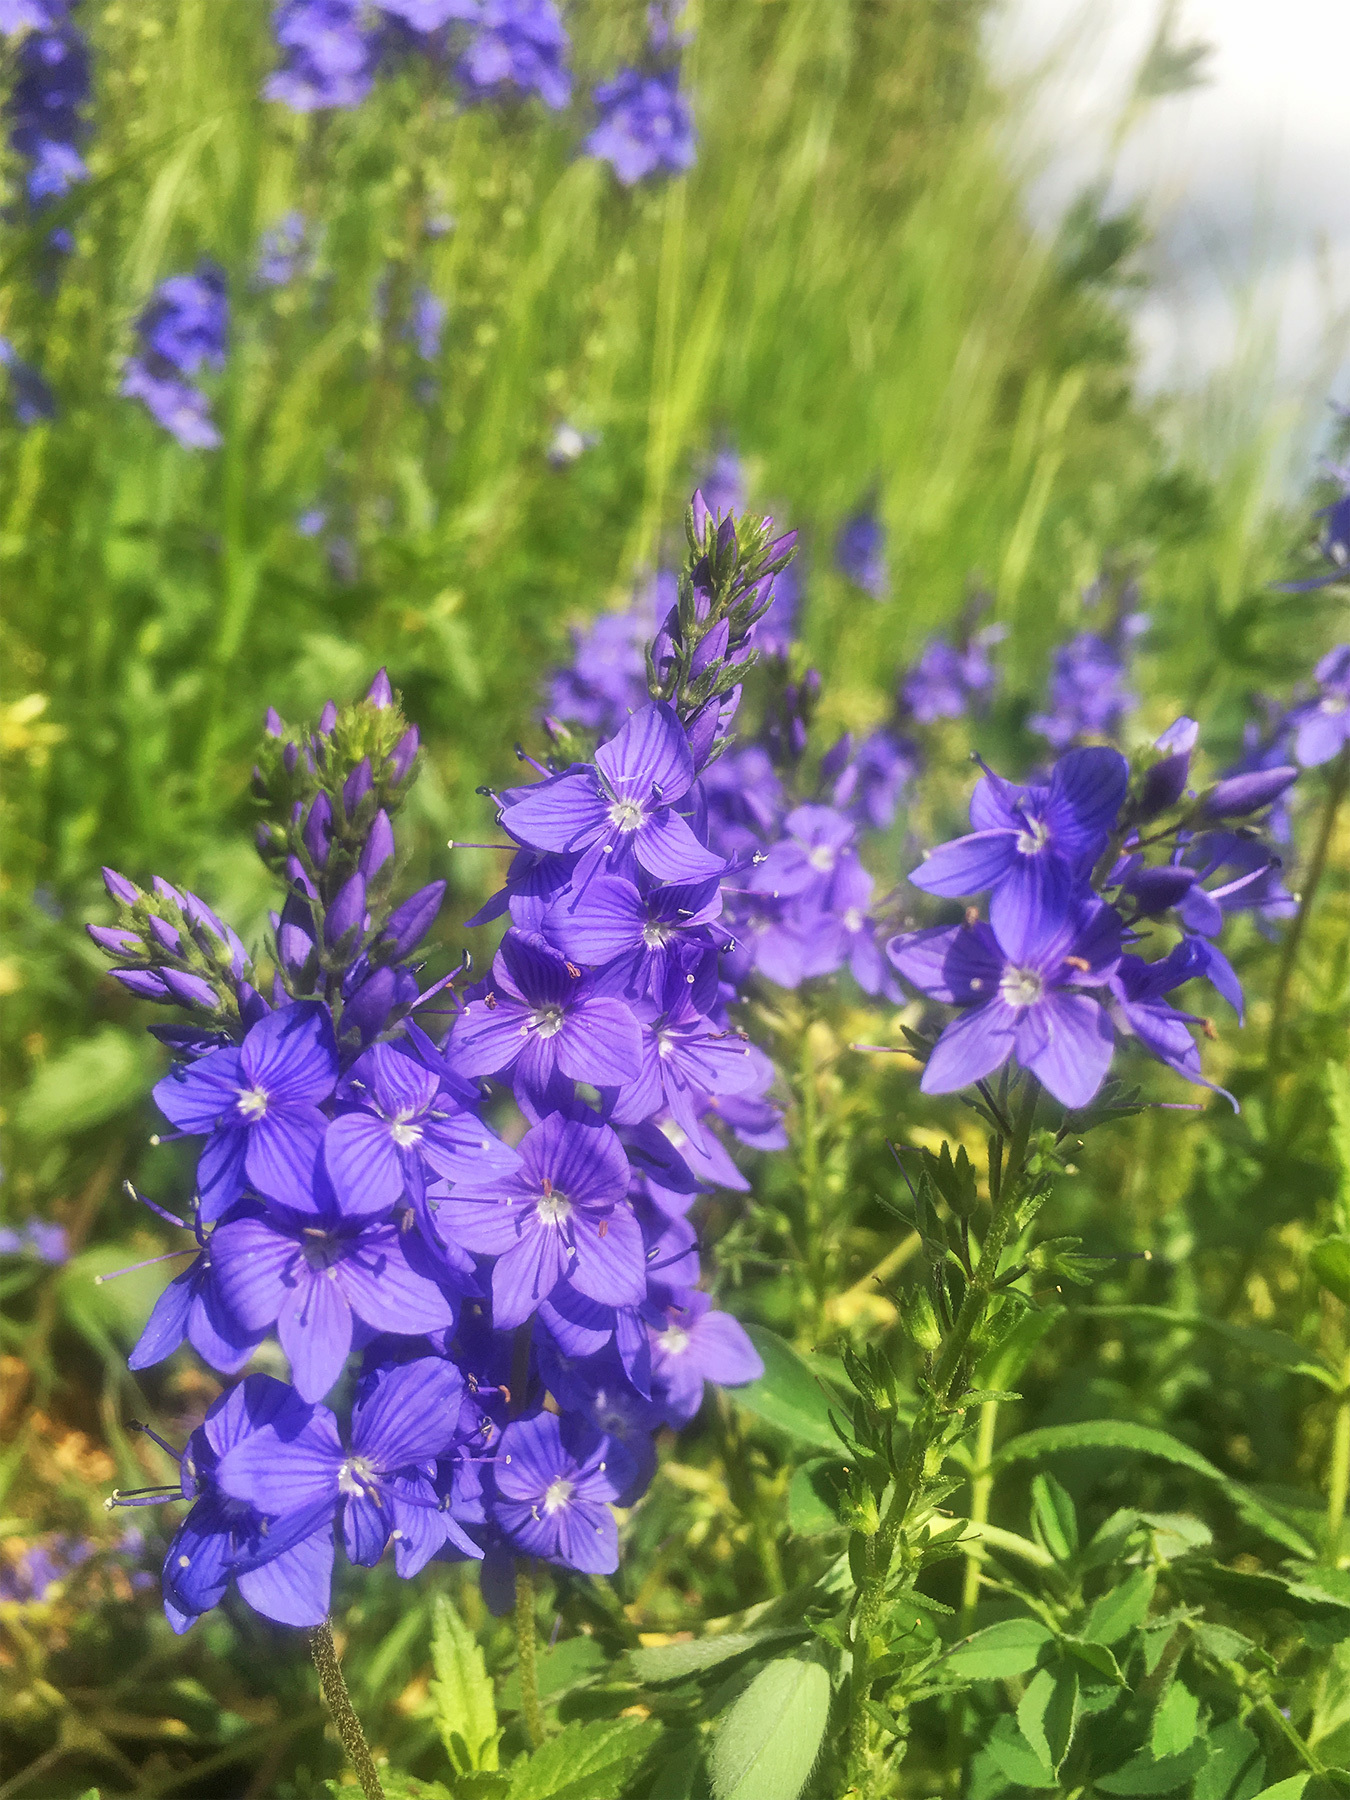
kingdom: Plantae
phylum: Tracheophyta
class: Magnoliopsida
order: Lamiales
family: Plantaginaceae
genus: Veronica
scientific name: Veronica teucrium
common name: Large speedwell
